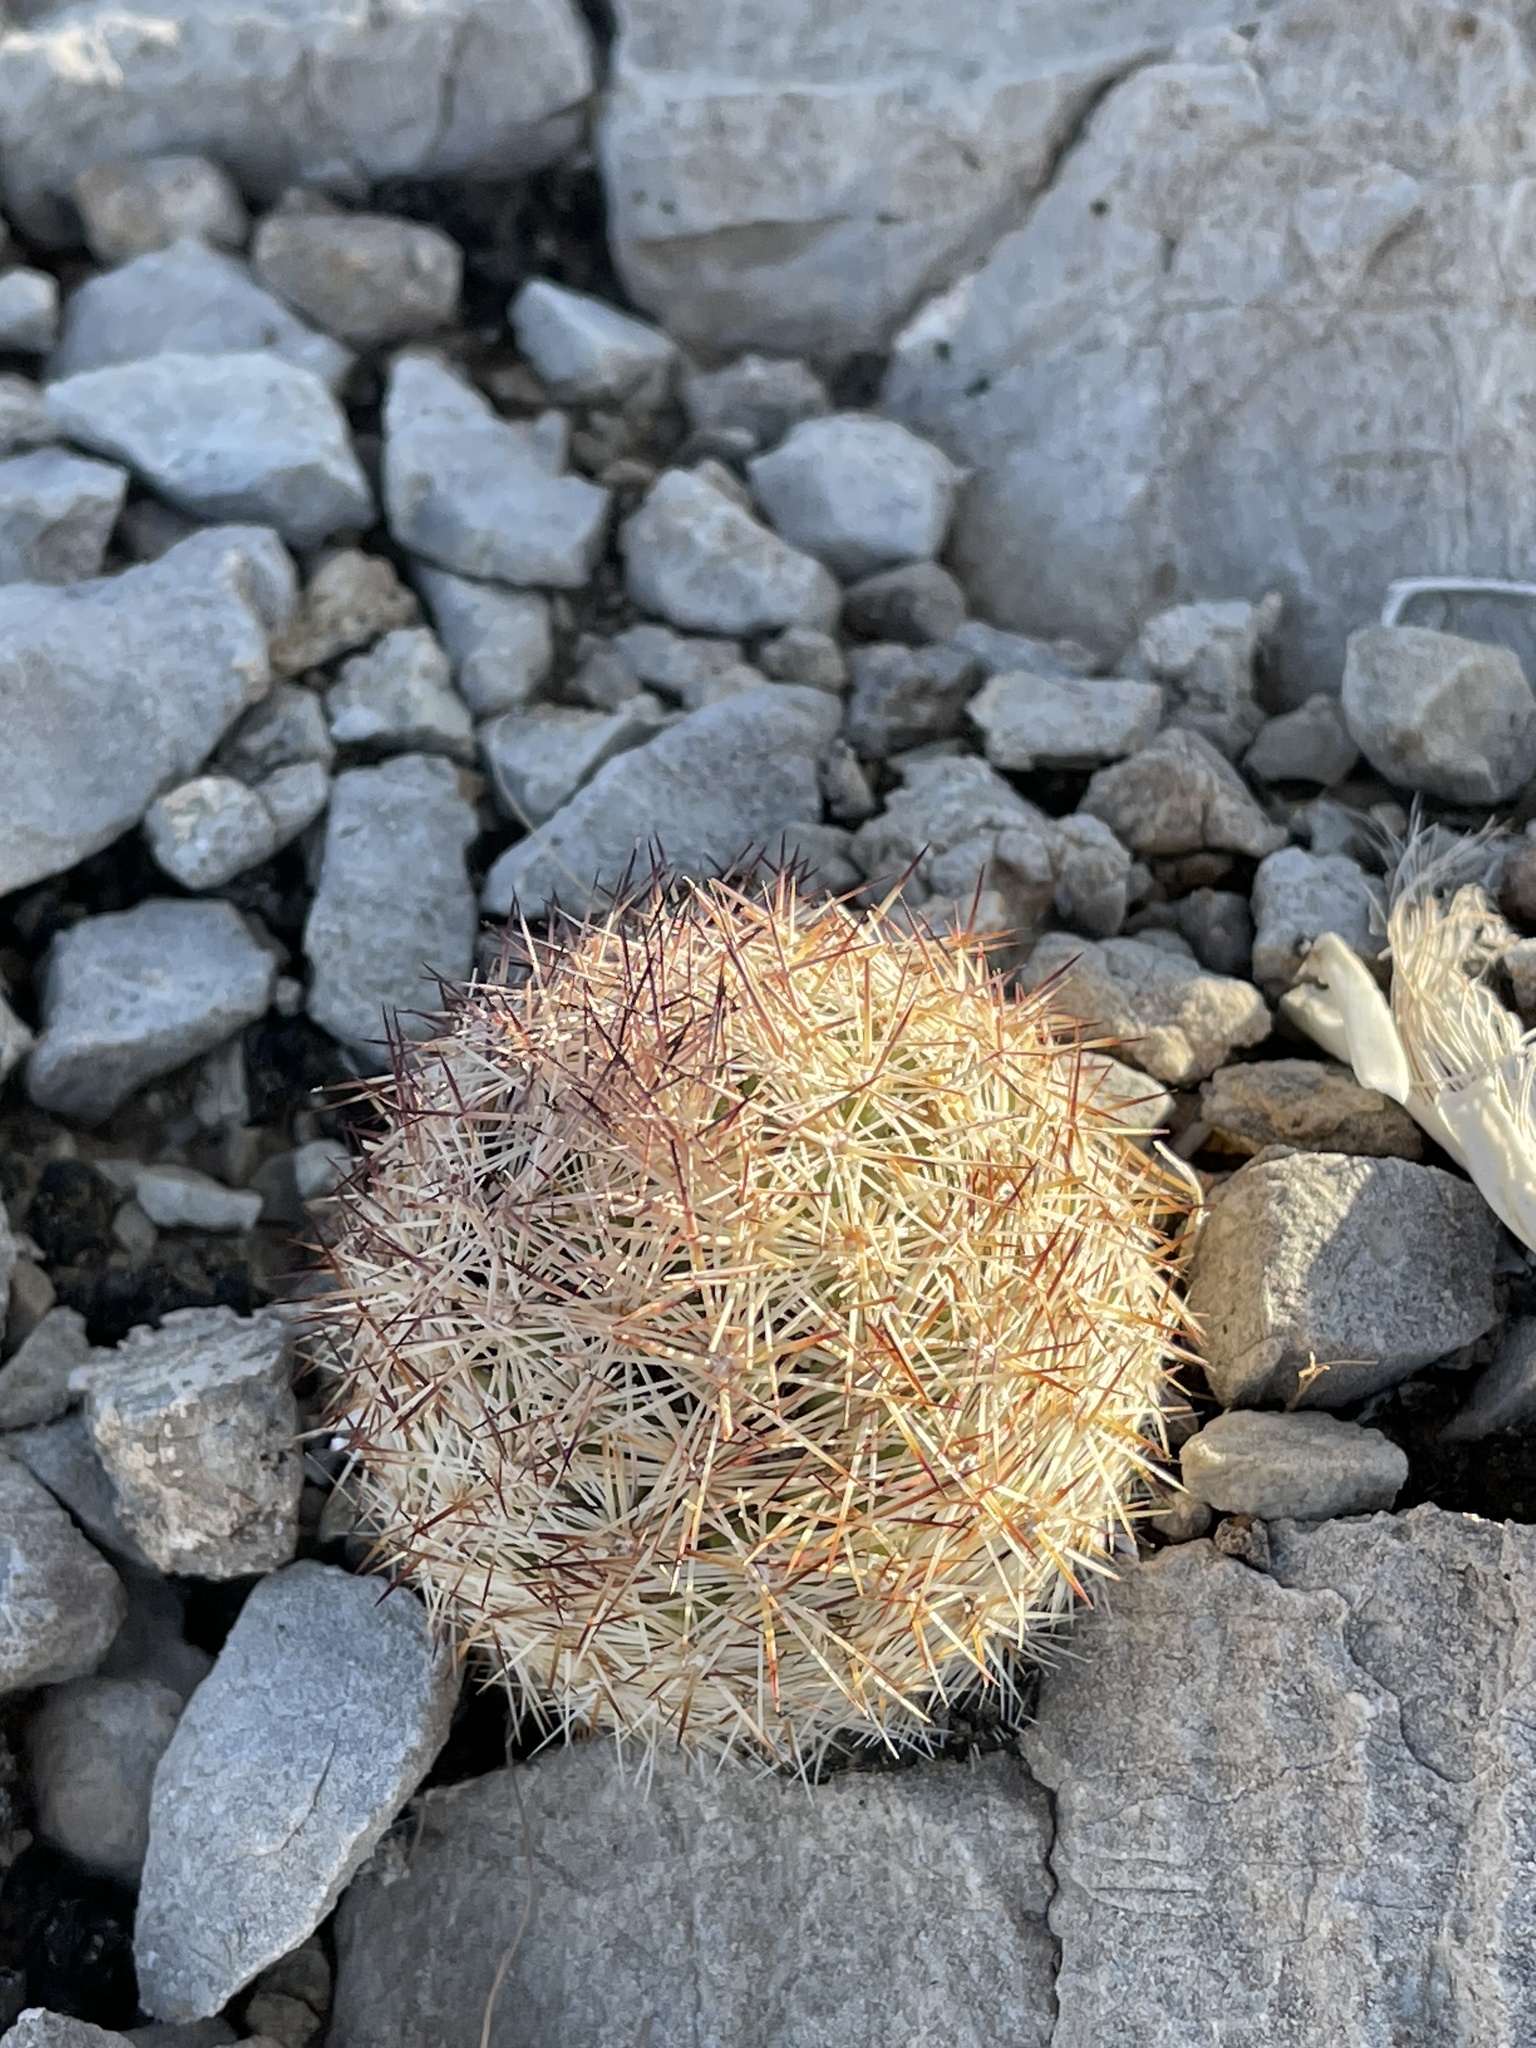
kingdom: Plantae
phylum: Tracheophyta
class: Magnoliopsida
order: Caryophyllales
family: Cactaceae
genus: Pelecyphora
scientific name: Pelecyphora dasyacantha
